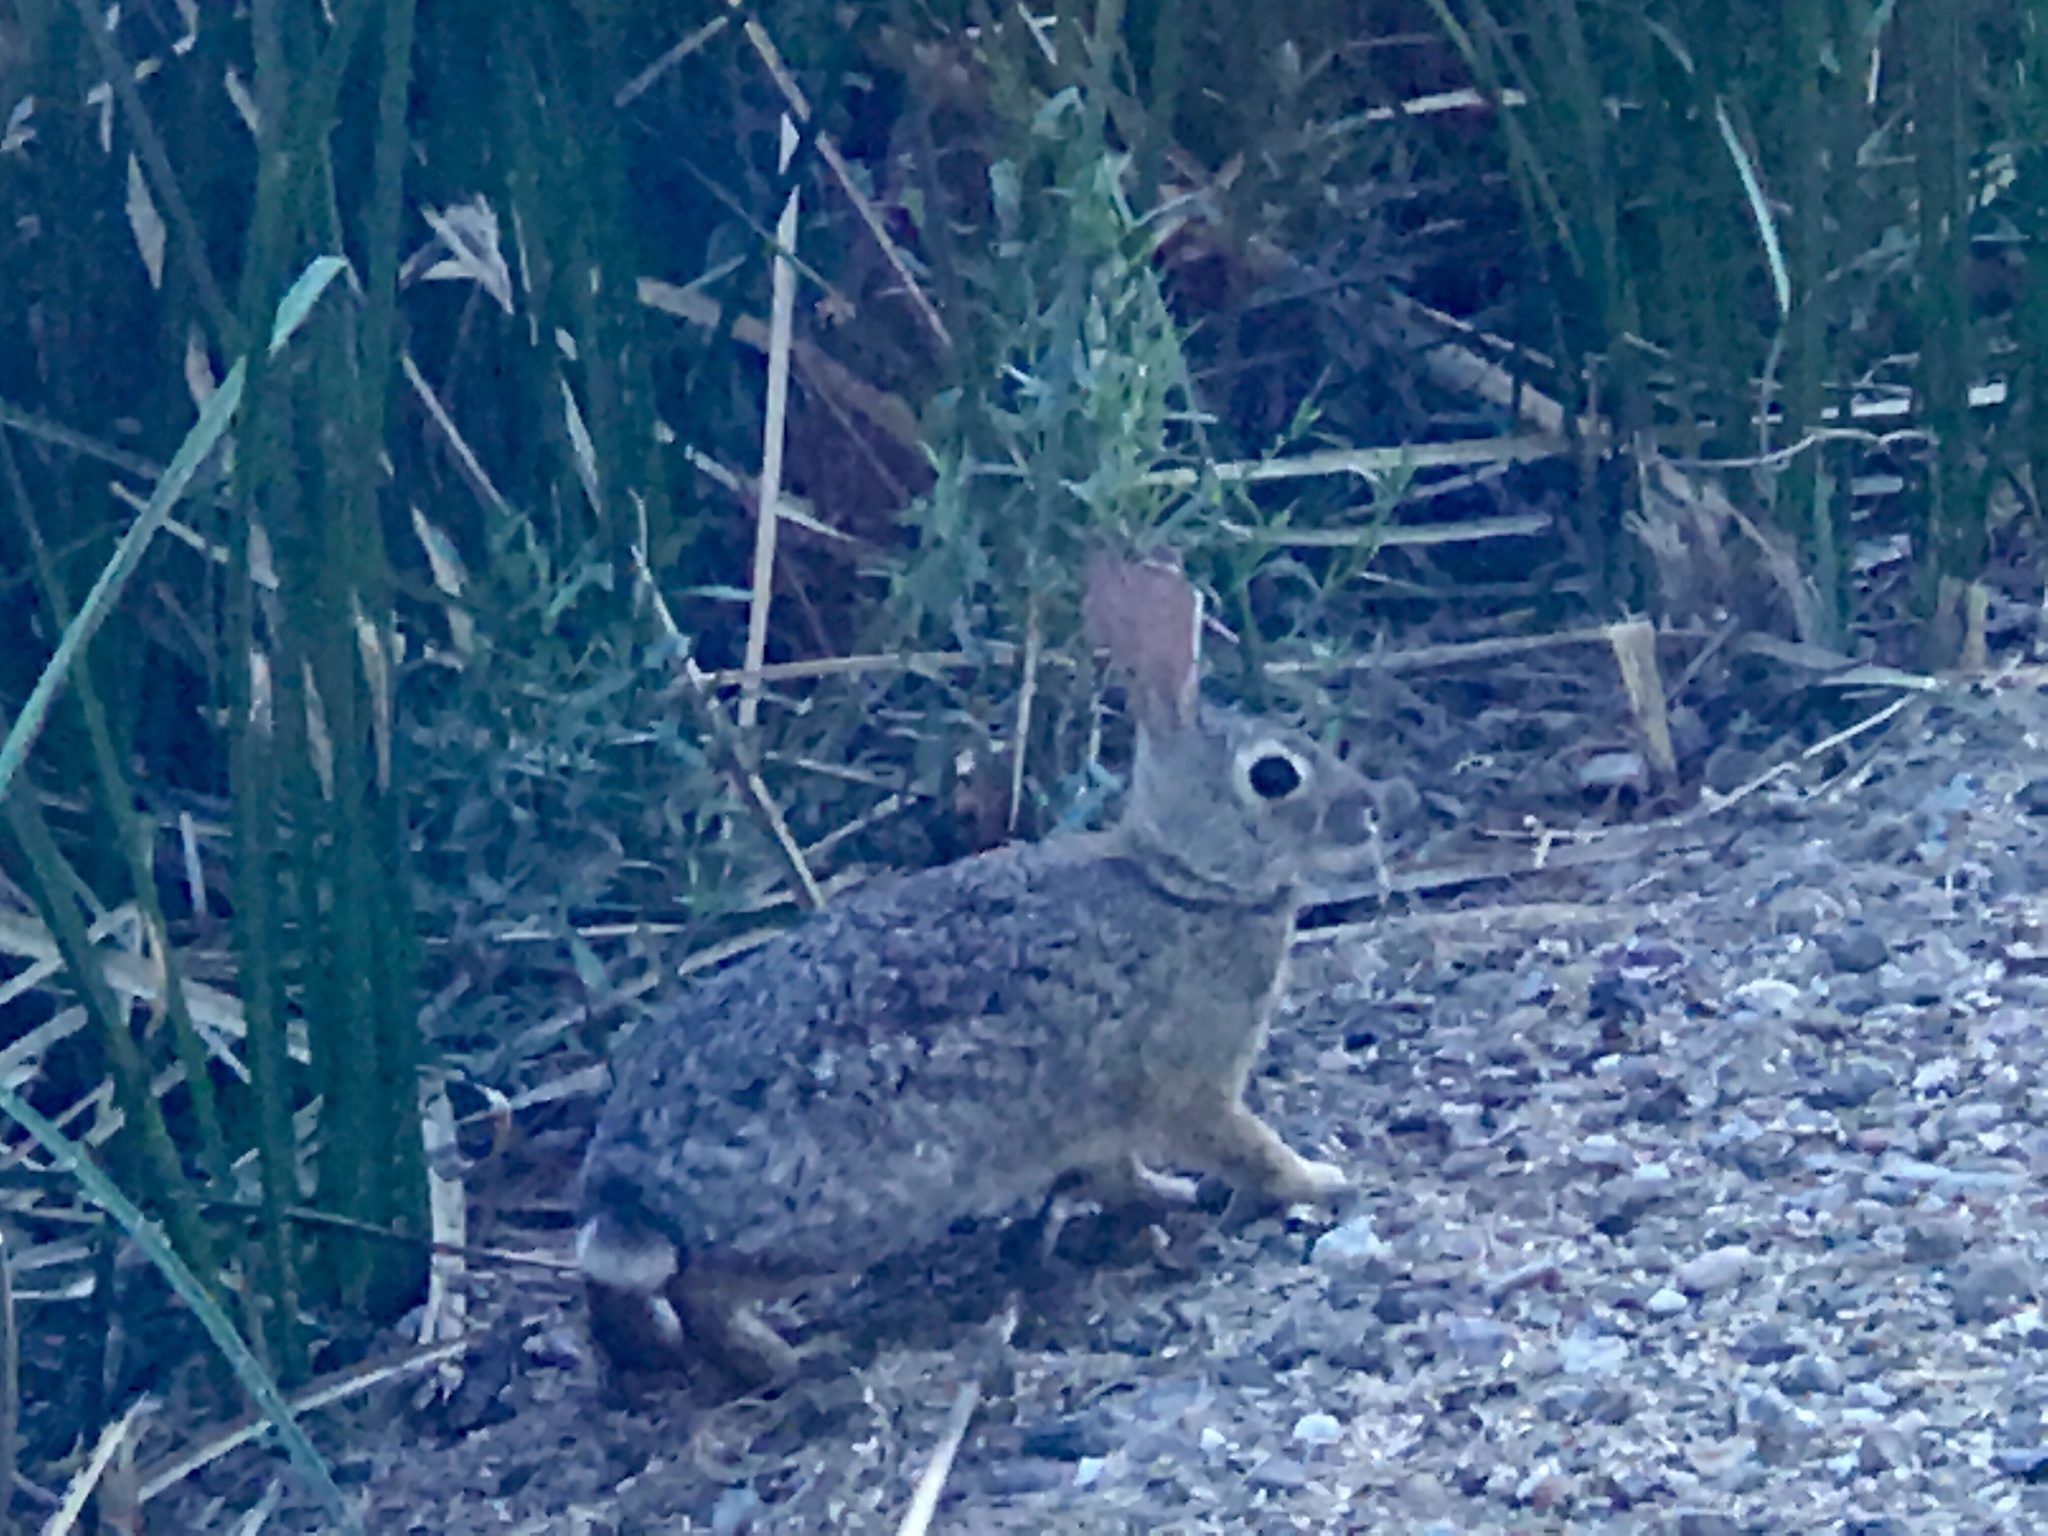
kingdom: Animalia
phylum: Chordata
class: Mammalia
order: Lagomorpha
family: Leporidae
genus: Sylvilagus
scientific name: Sylvilagus audubonii
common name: Desert cottontail
